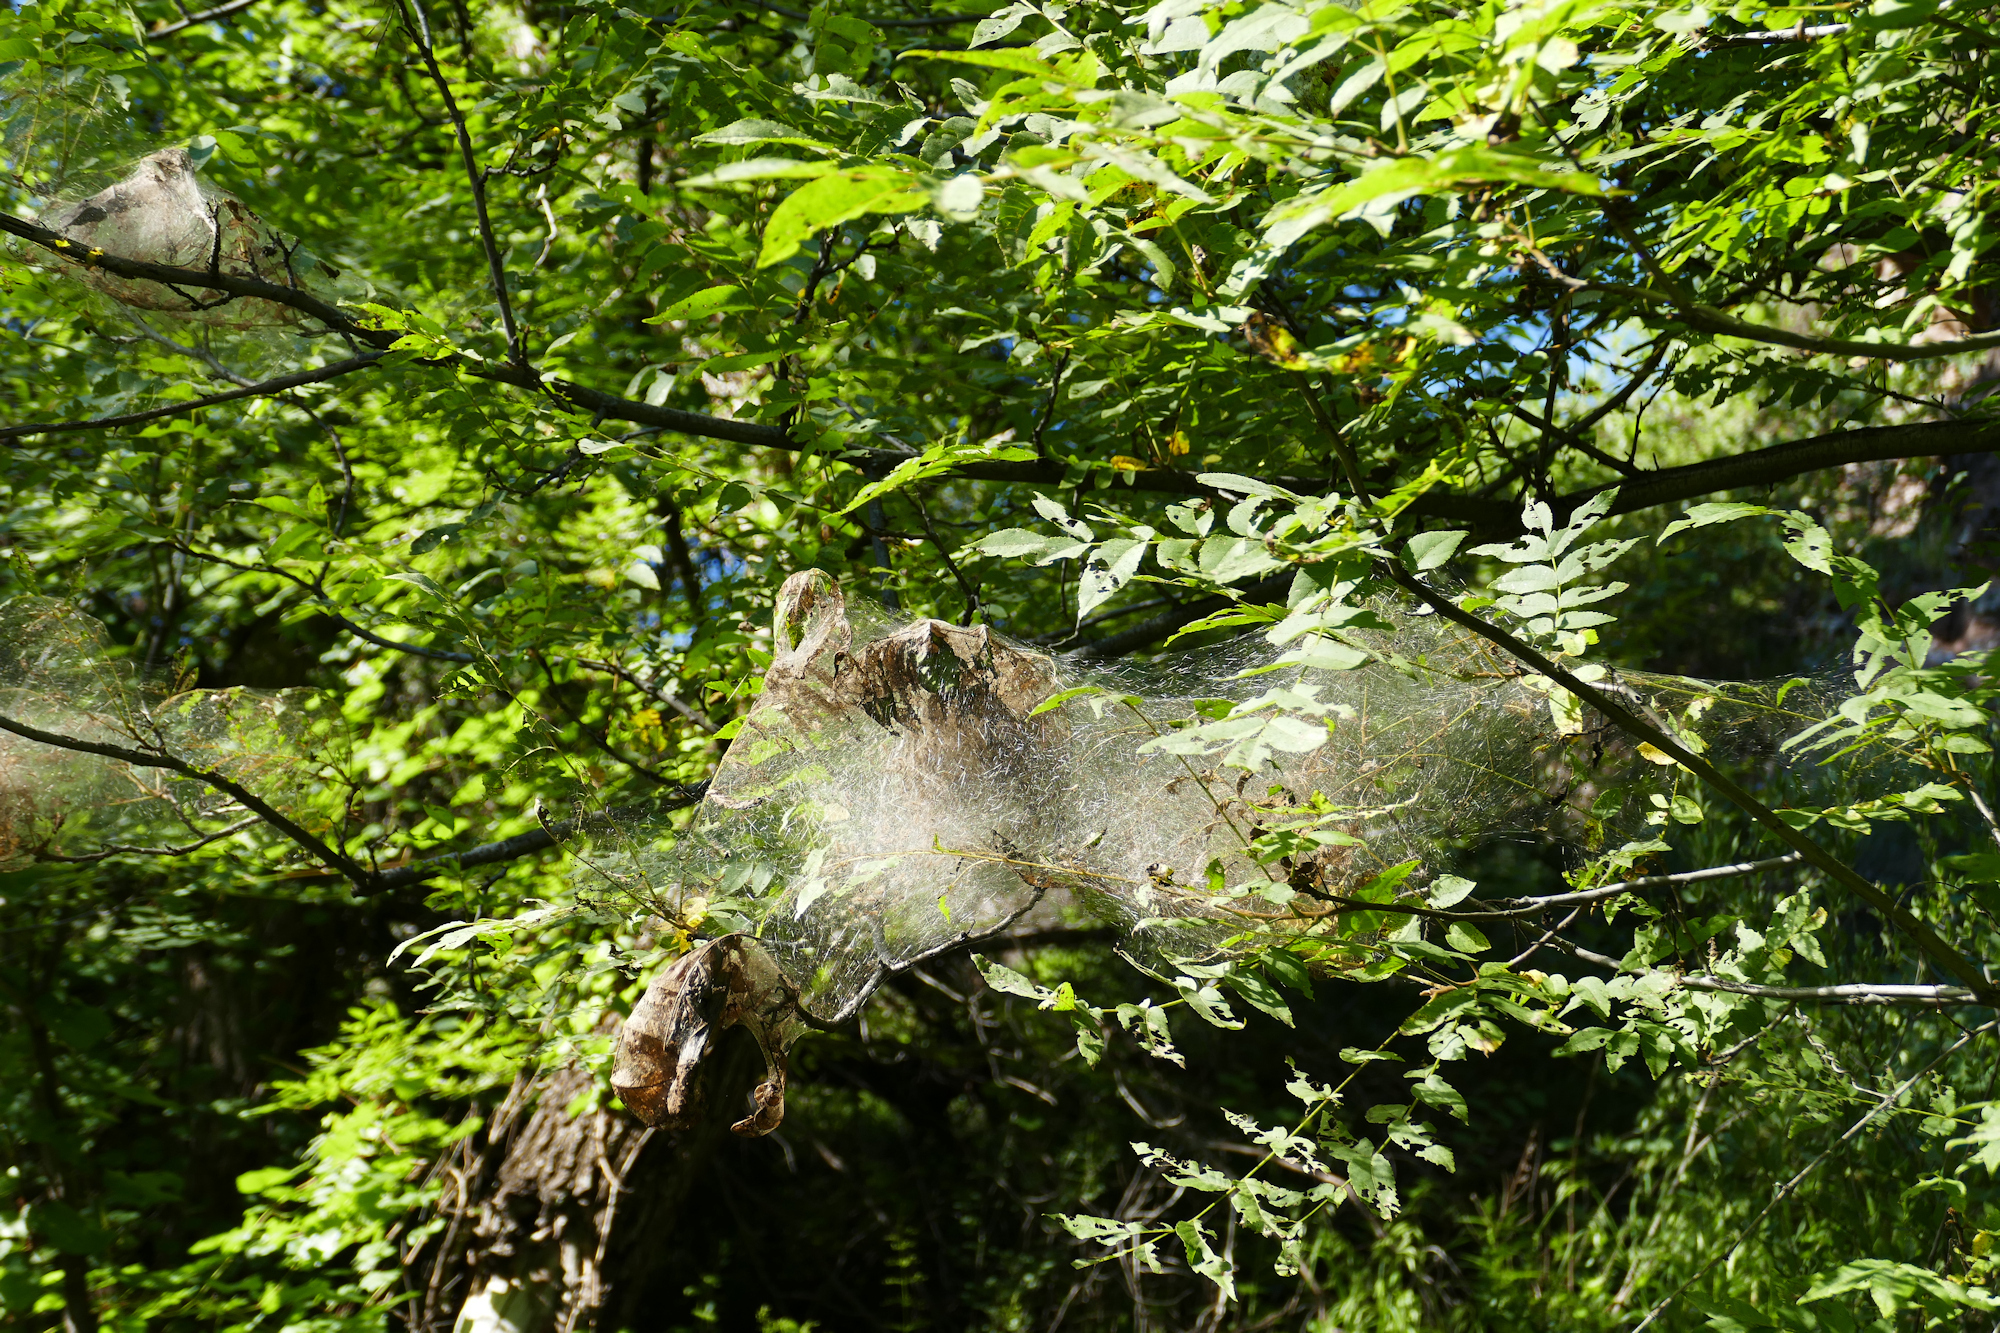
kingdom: Animalia
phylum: Arthropoda
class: Insecta
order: Lepidoptera
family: Erebidae
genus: Hyphantria
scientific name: Hyphantria cunea
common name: American white moth
